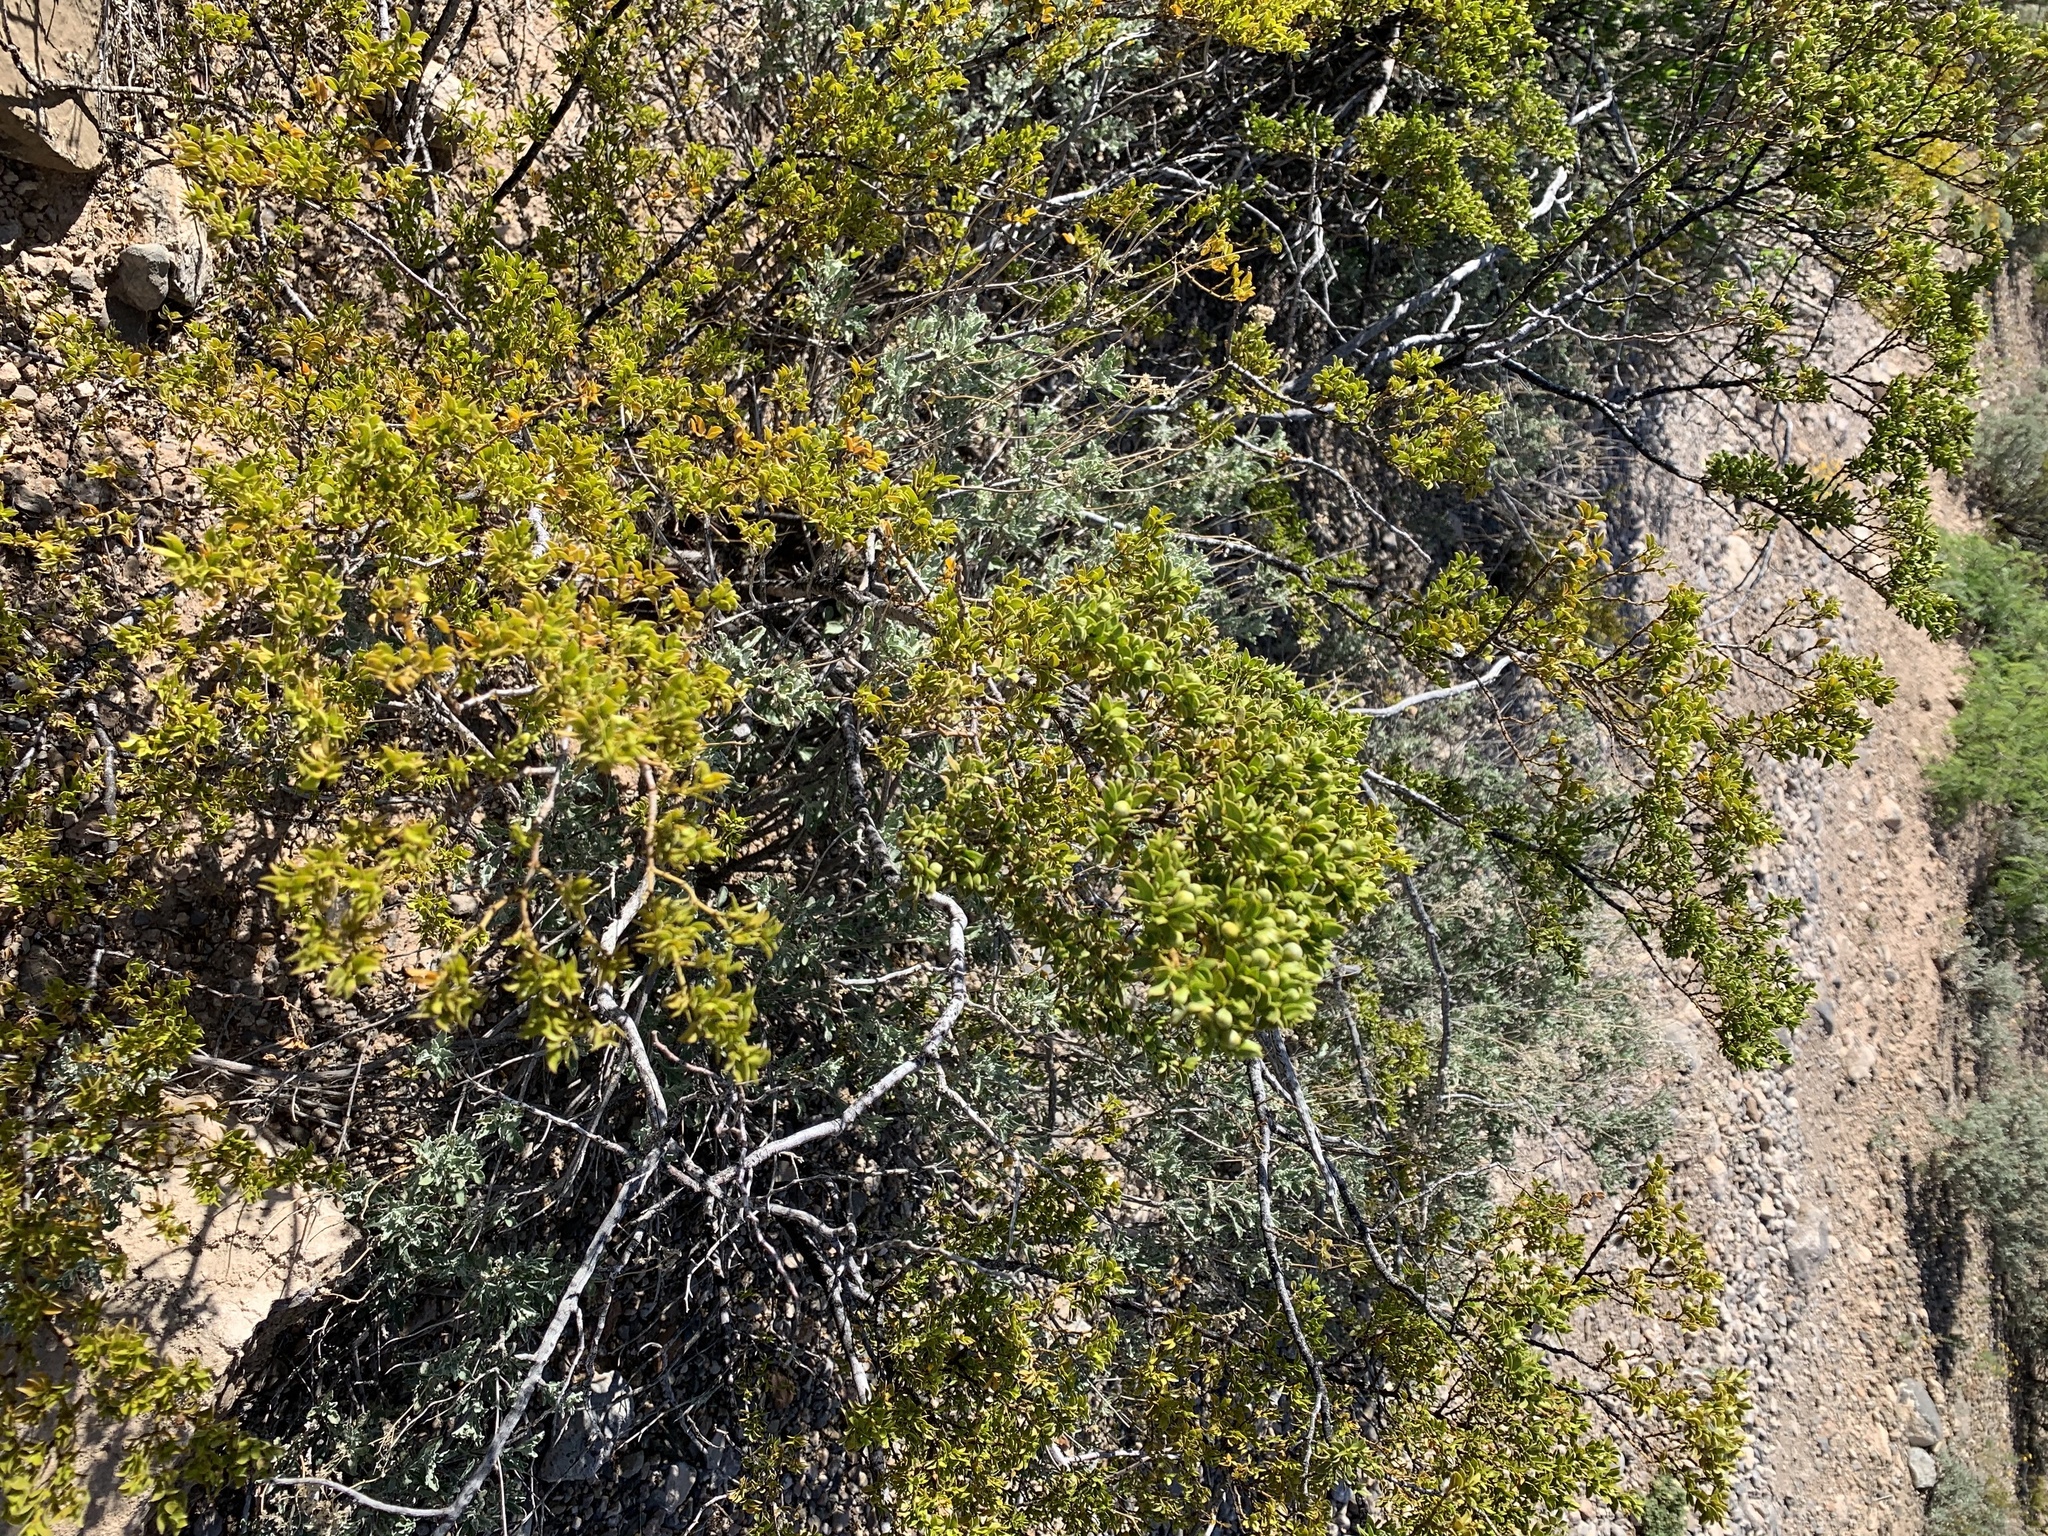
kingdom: Plantae
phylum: Tracheophyta
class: Magnoliopsida
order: Zygophyllales
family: Zygophyllaceae
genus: Larrea
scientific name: Larrea tridentata
